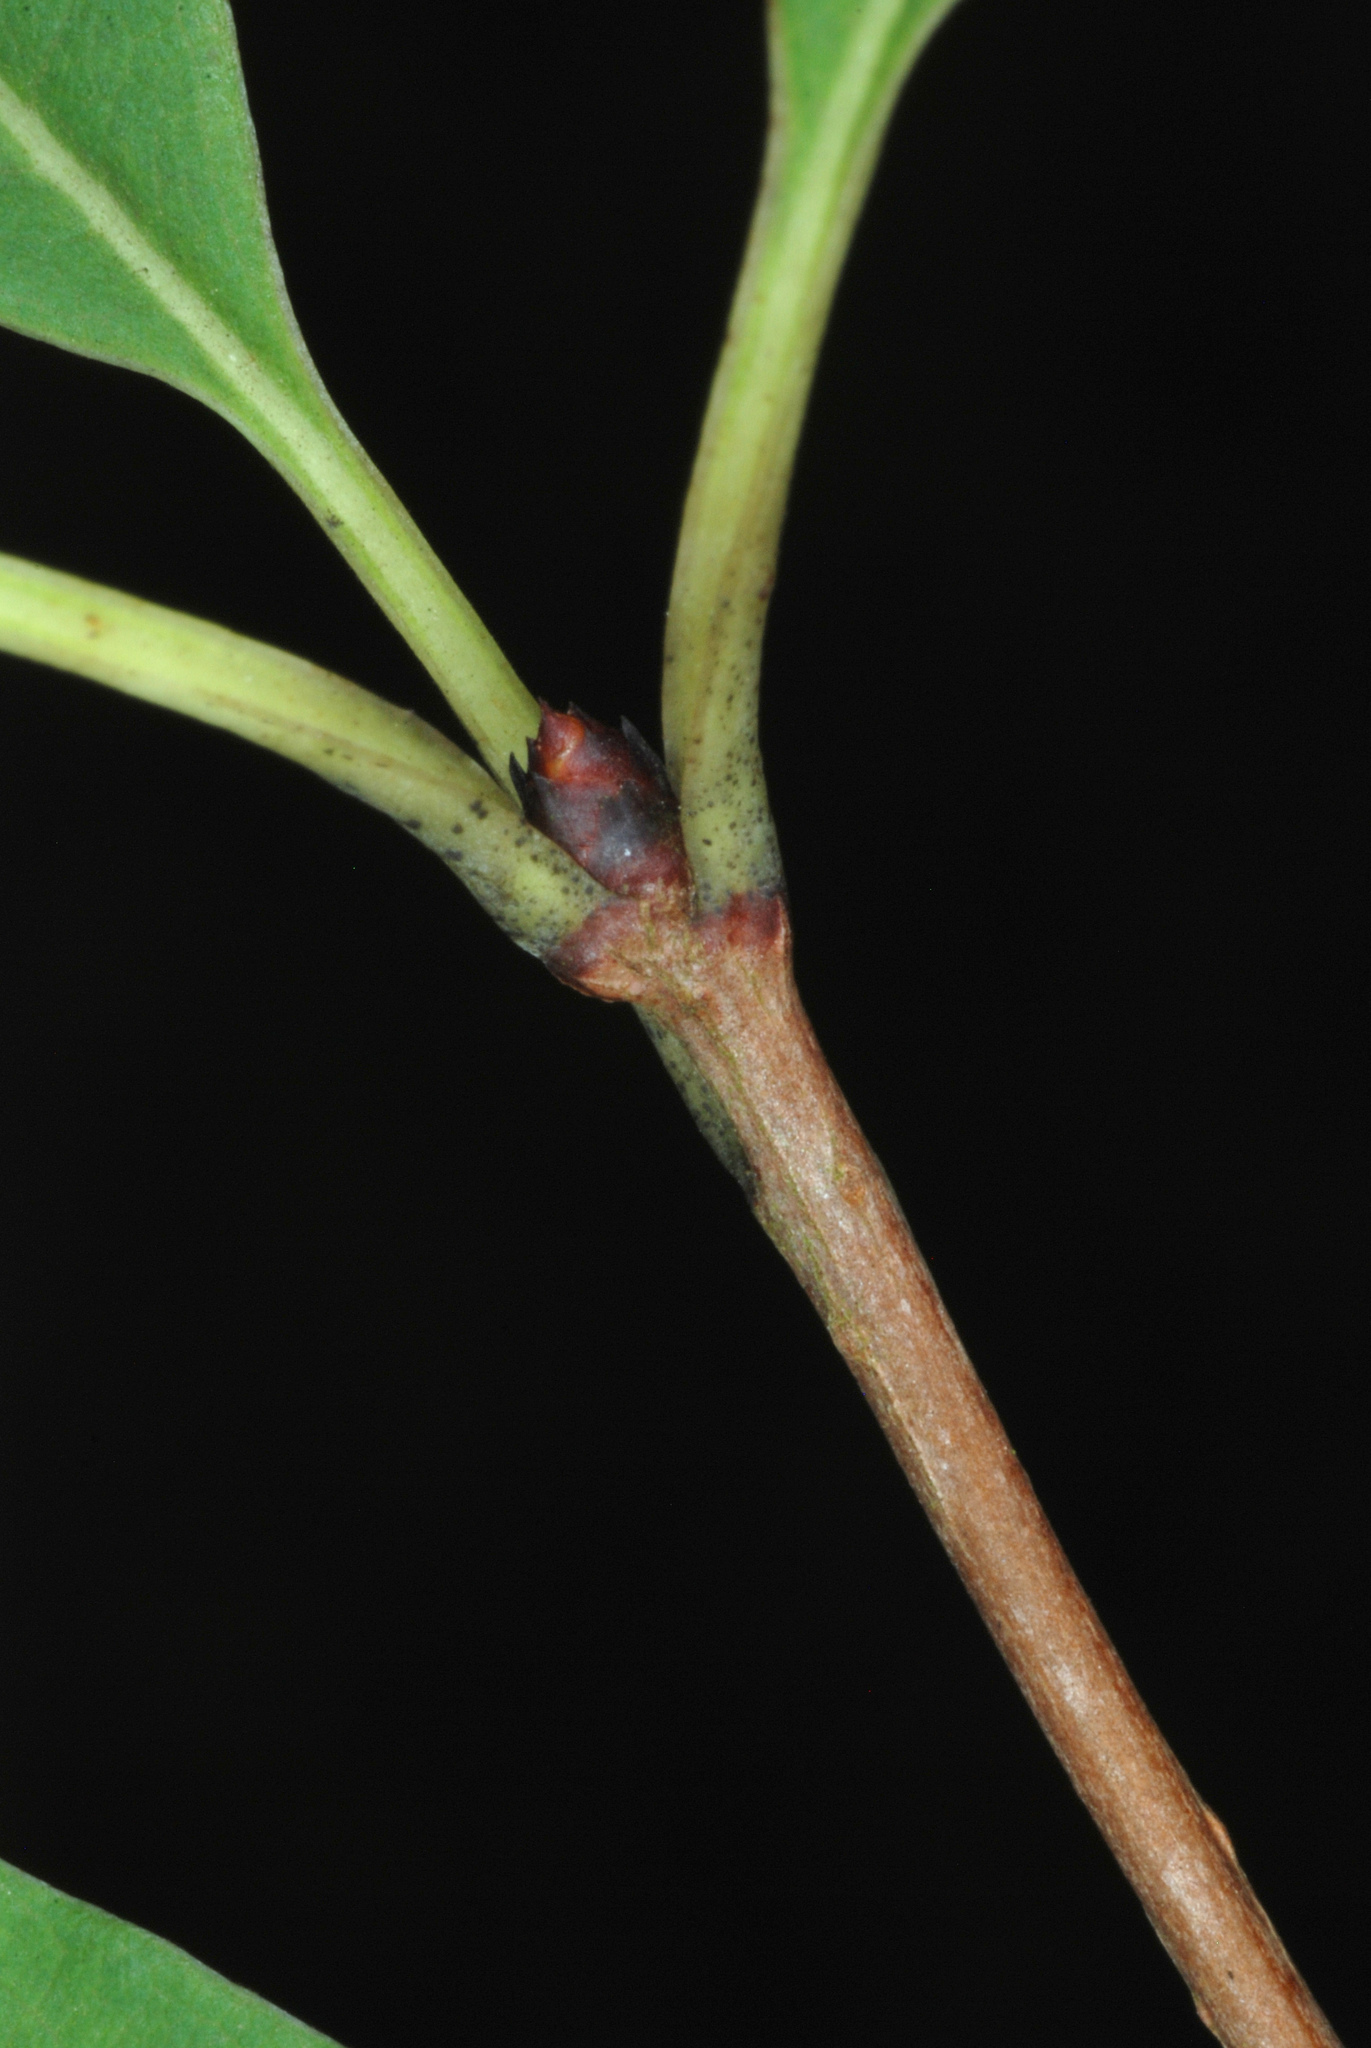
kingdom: Plantae
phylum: Tracheophyta
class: Magnoliopsida
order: Rosales
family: Rosaceae
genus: Exochorda
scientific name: Exochorda racemosa
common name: Common pearlbrush
